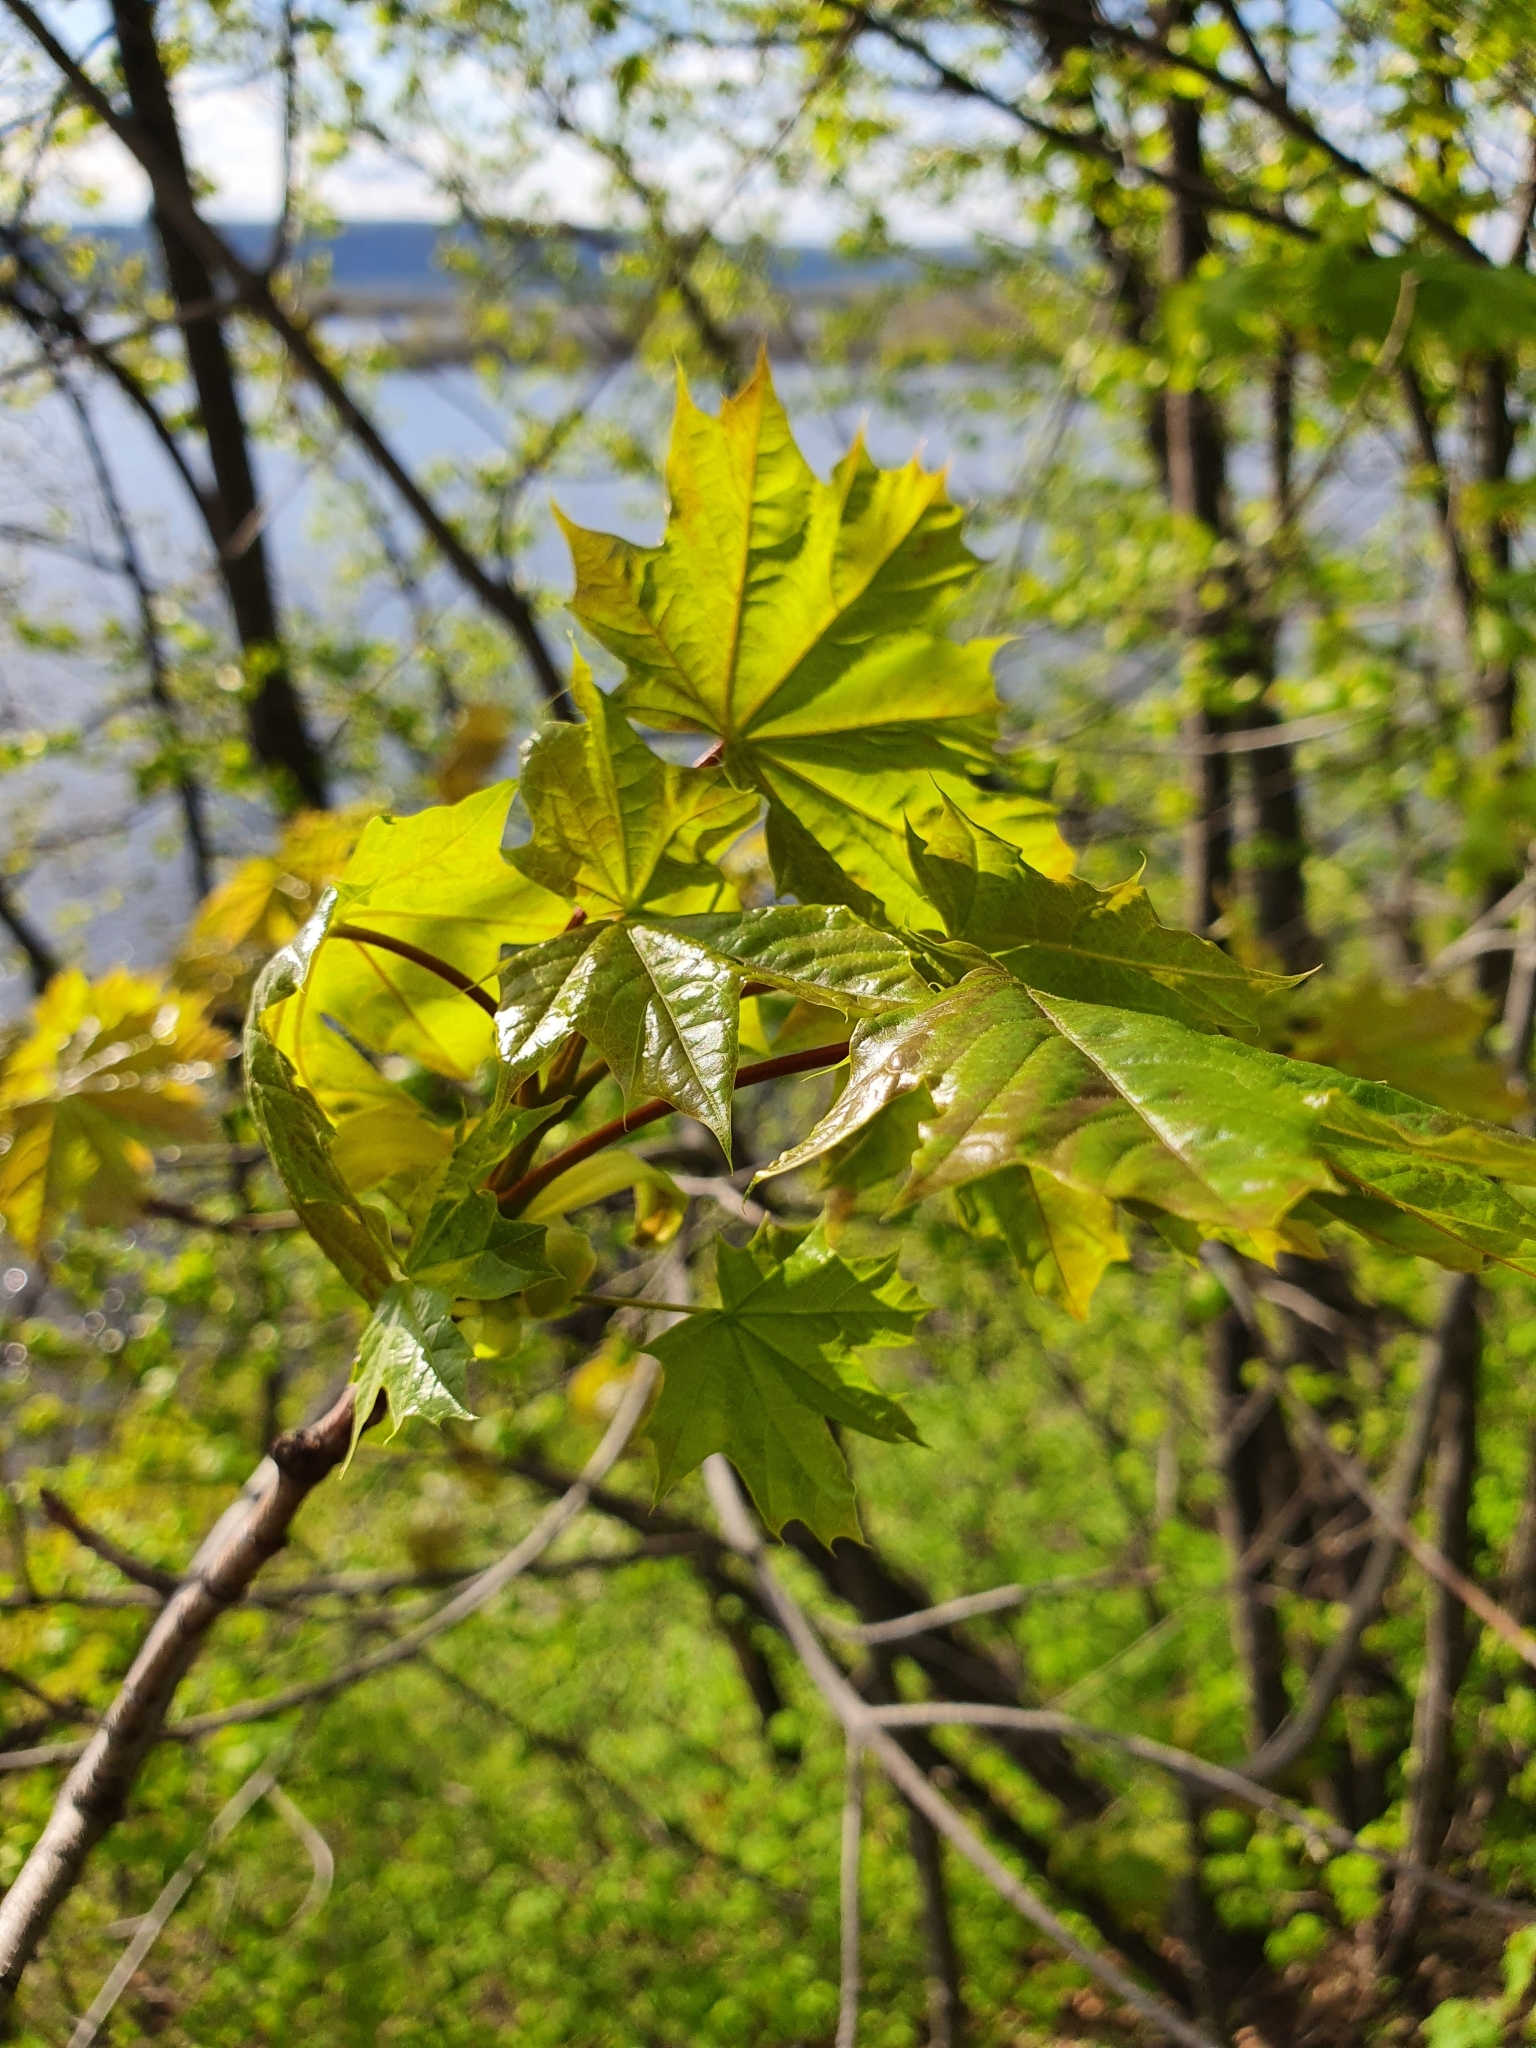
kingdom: Plantae
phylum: Tracheophyta
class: Magnoliopsida
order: Sapindales
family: Sapindaceae
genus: Acer
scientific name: Acer platanoides
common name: Norway maple
